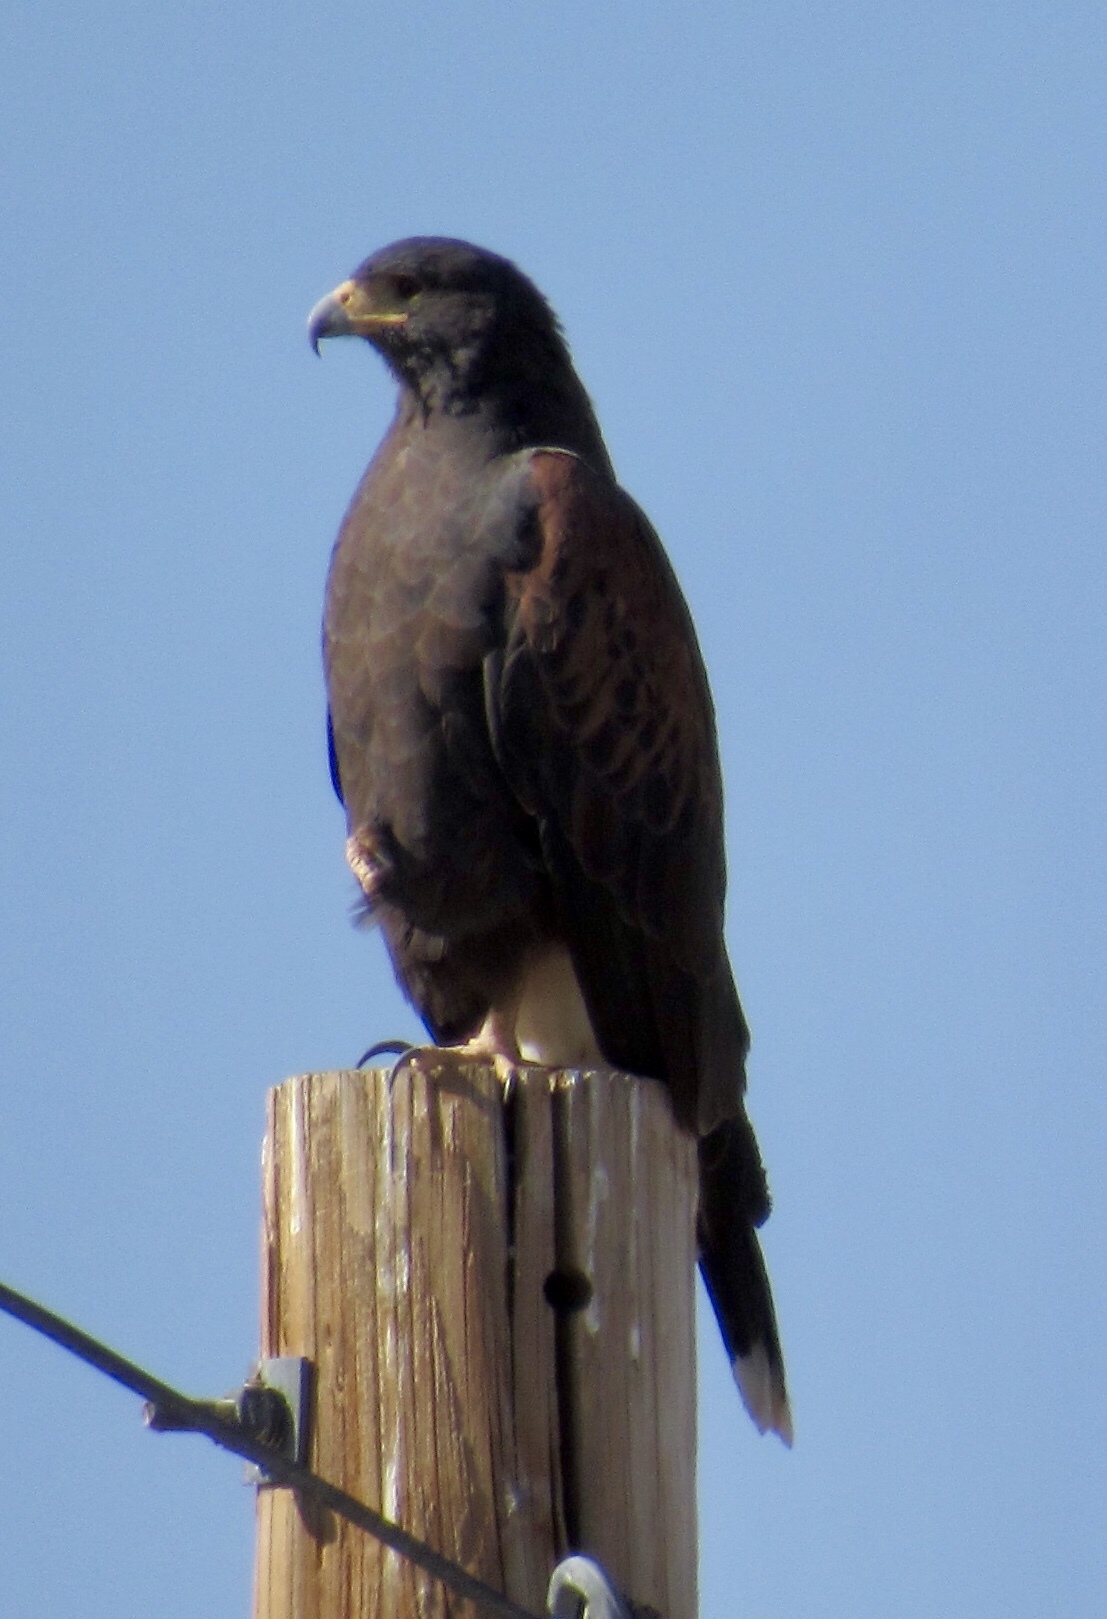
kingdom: Animalia
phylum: Chordata
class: Aves
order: Accipitriformes
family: Accipitridae
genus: Parabuteo
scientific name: Parabuteo unicinctus
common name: Harris's hawk
